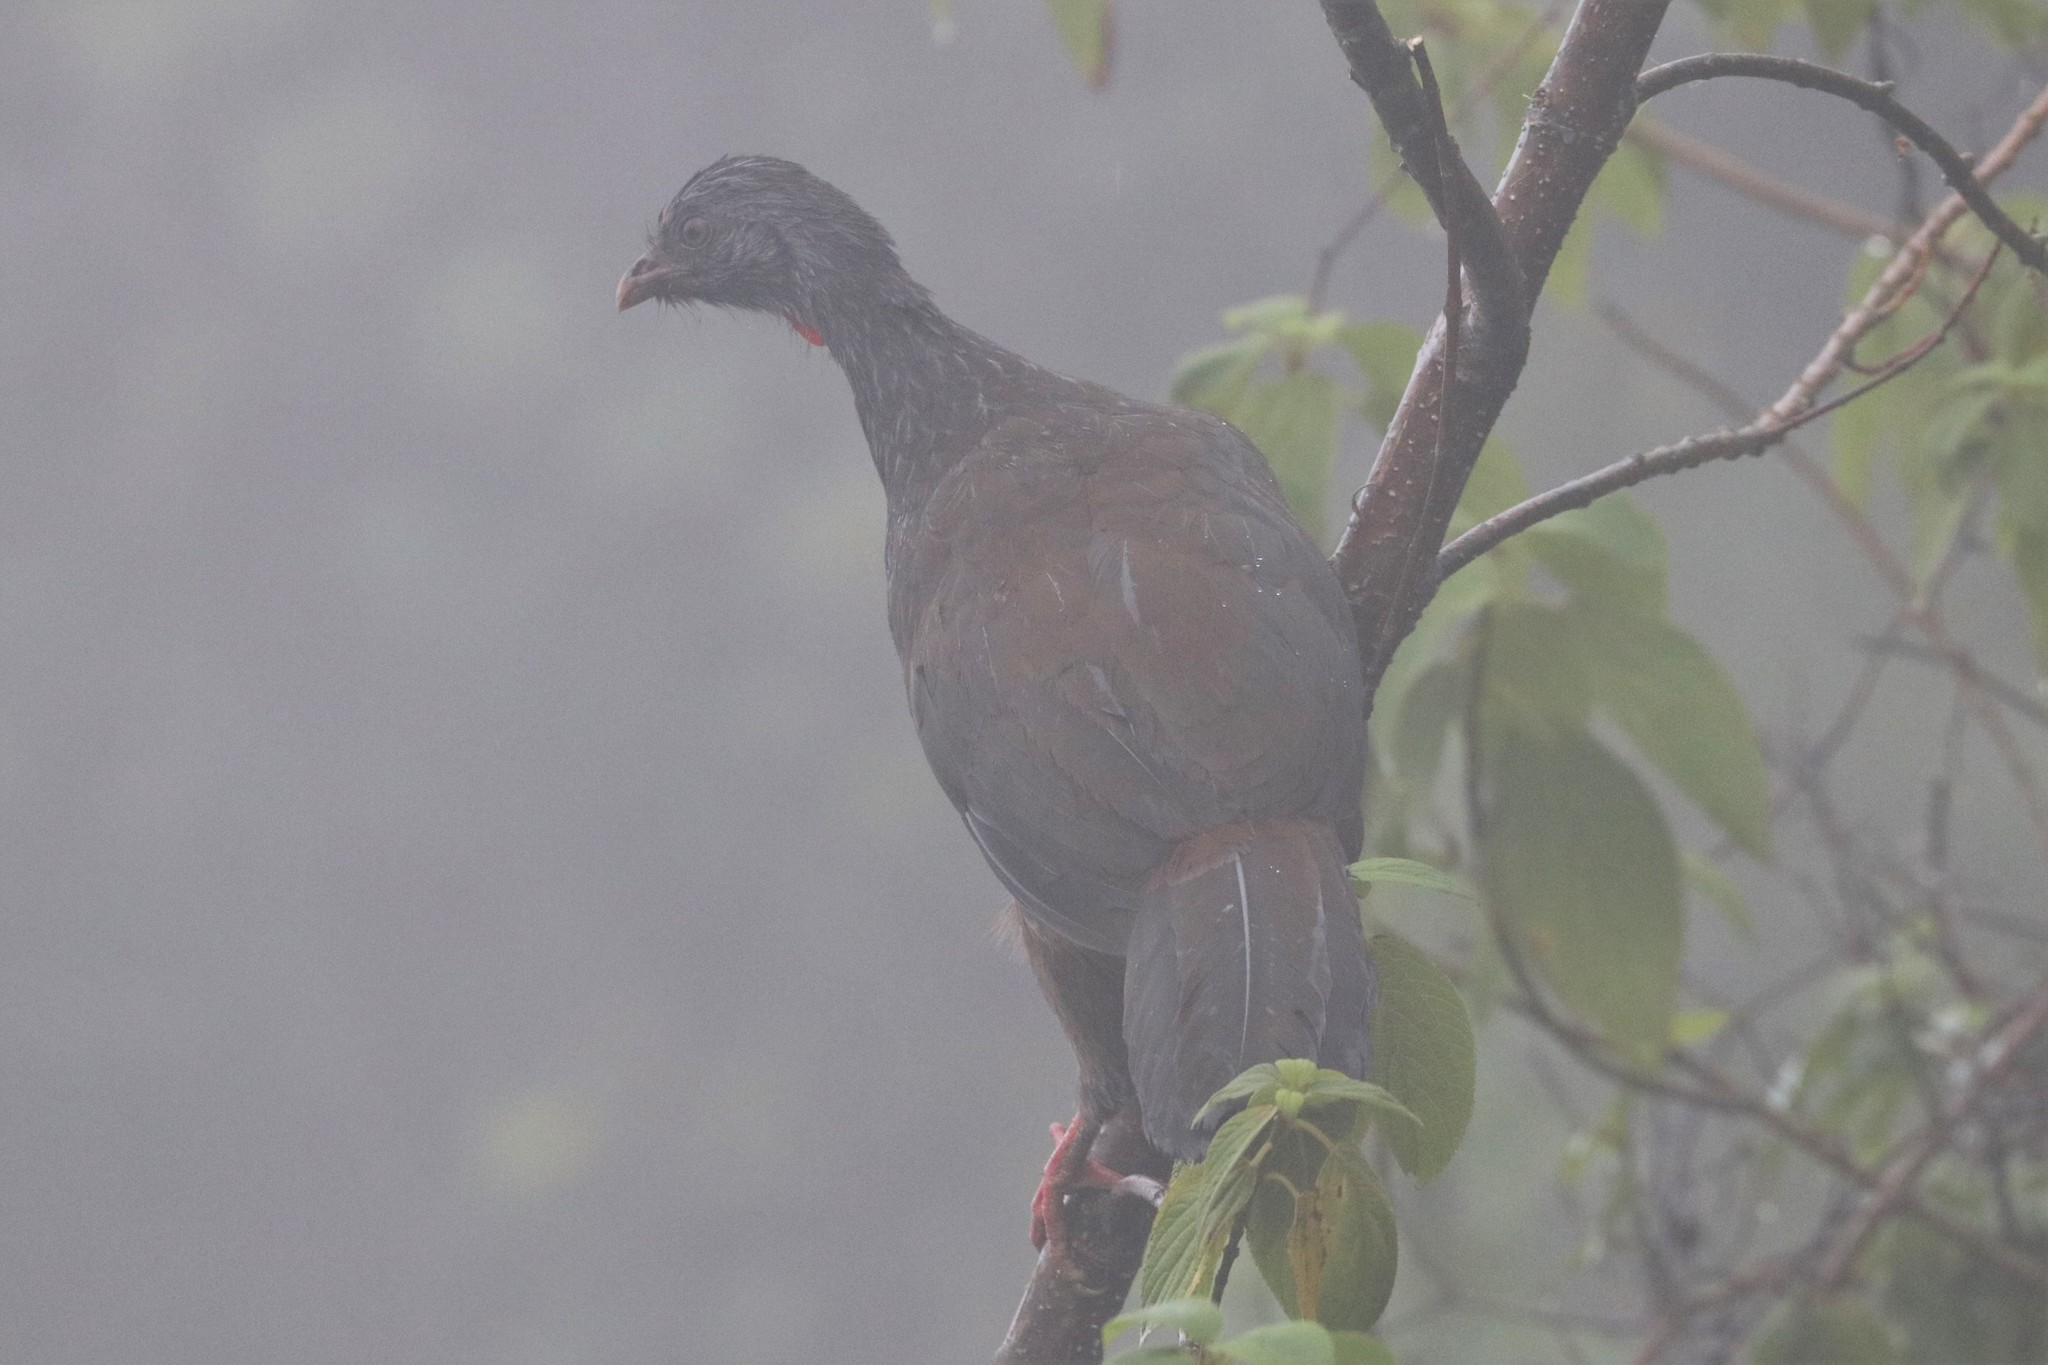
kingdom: Animalia
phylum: Chordata
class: Aves
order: Galliformes
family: Cracidae
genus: Penelope
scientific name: Penelope montagnii
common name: Andean guan
